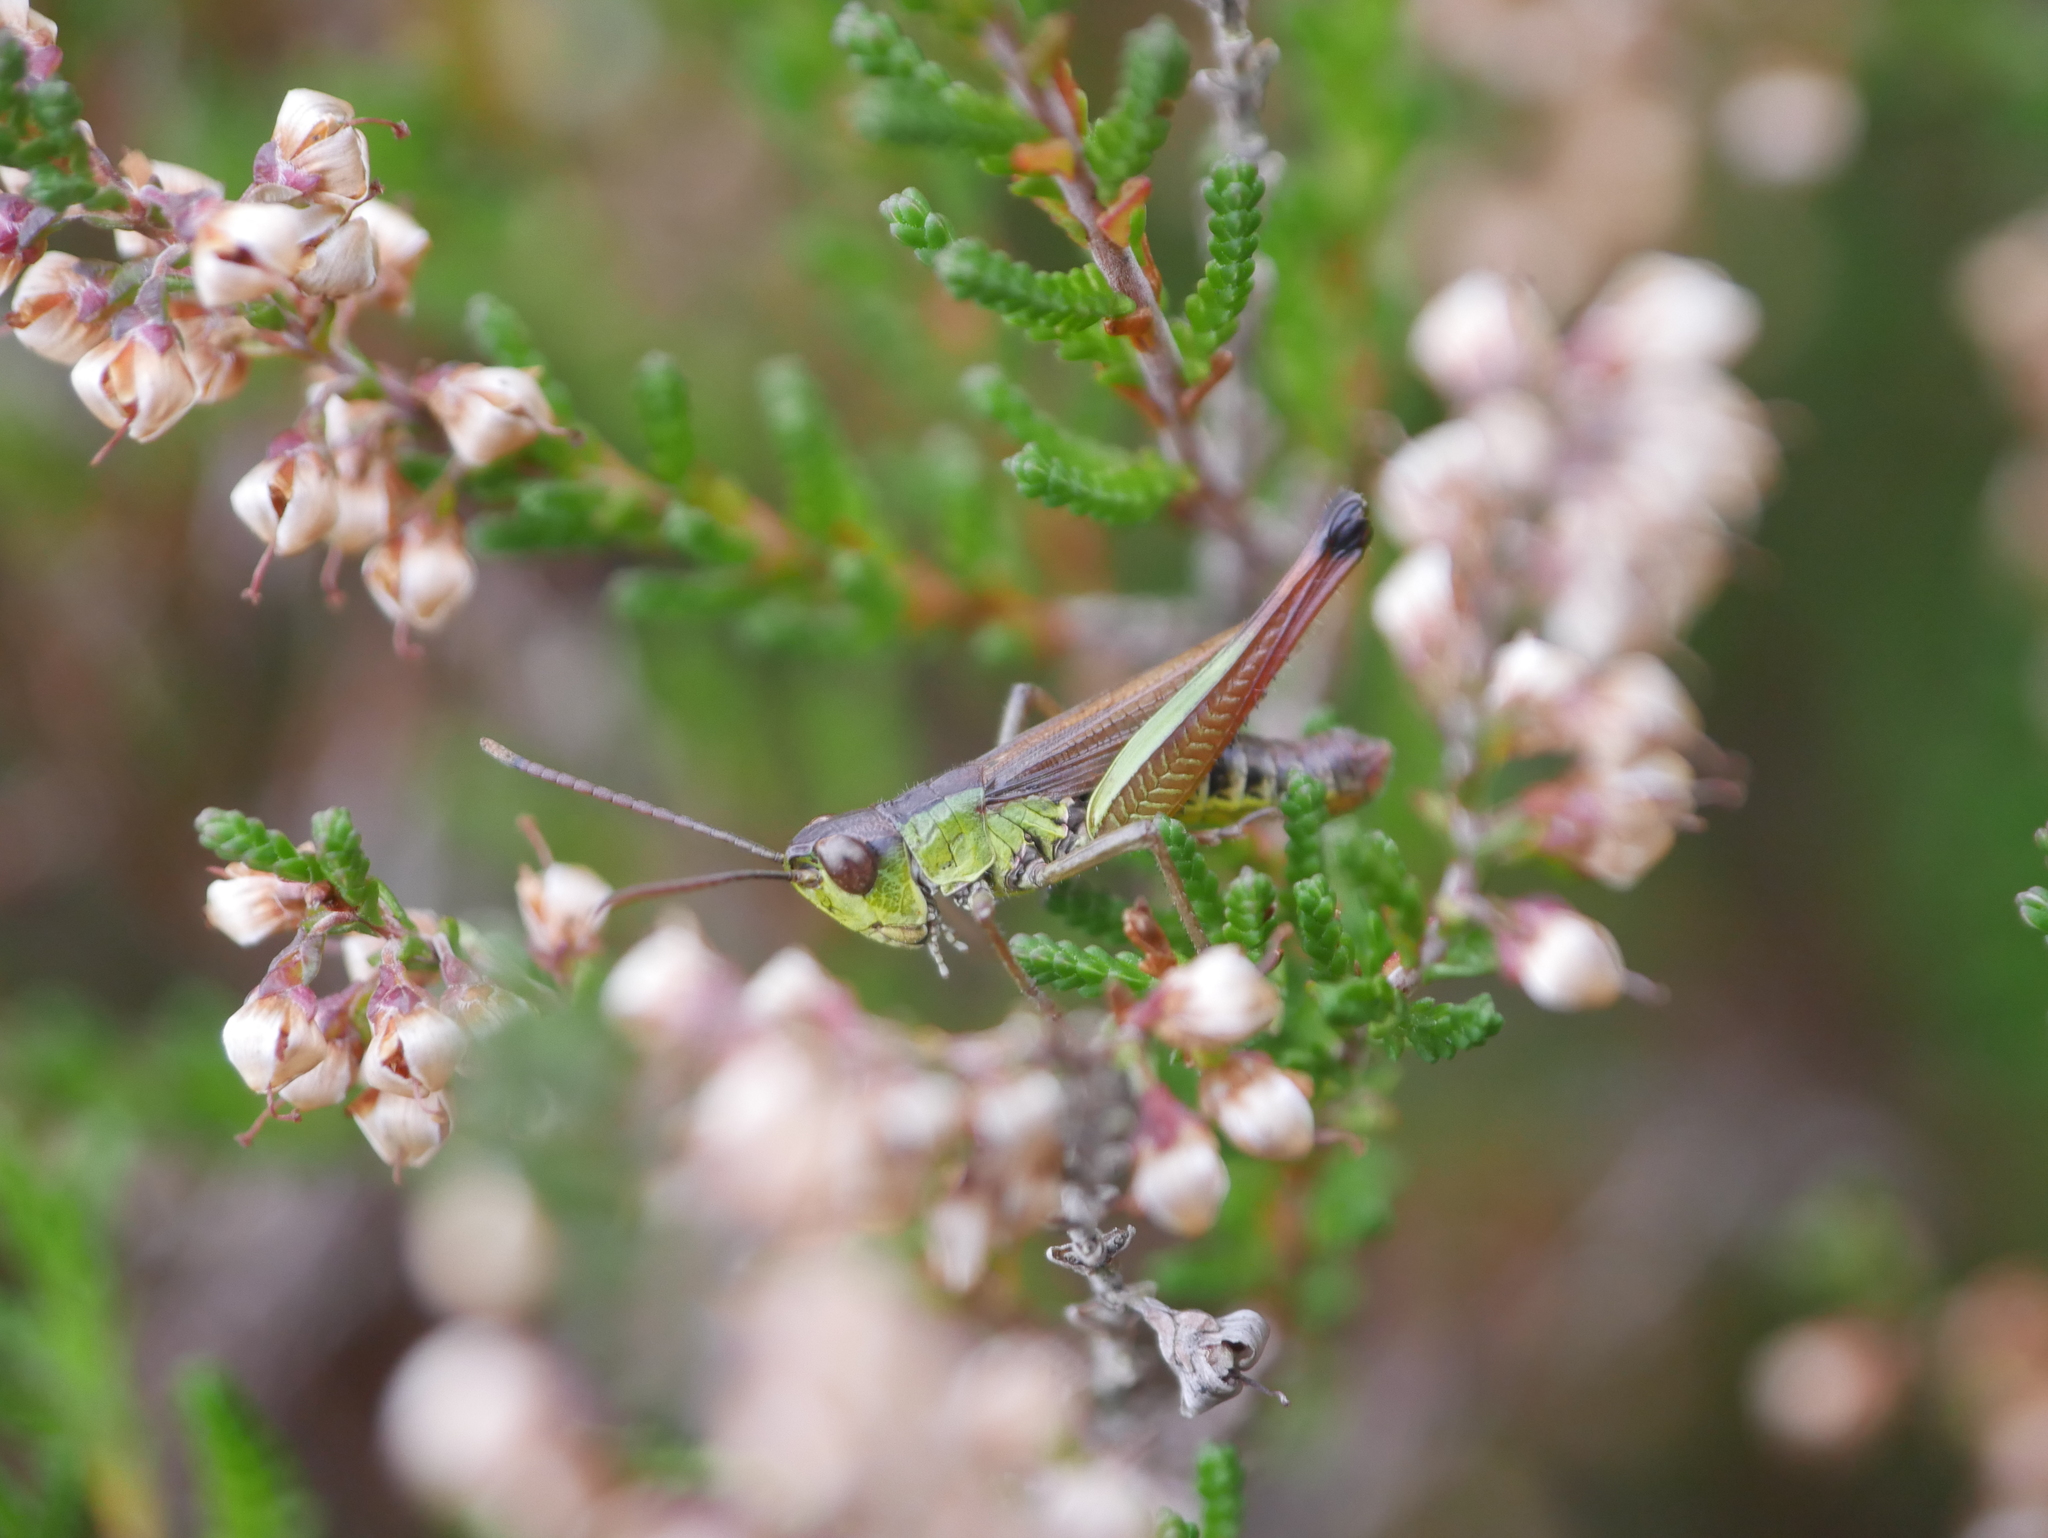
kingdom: Animalia
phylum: Arthropoda
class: Insecta
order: Orthoptera
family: Acrididae
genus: Pseudochorthippus
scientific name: Pseudochorthippus parallelus
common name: Meadow grasshopper
